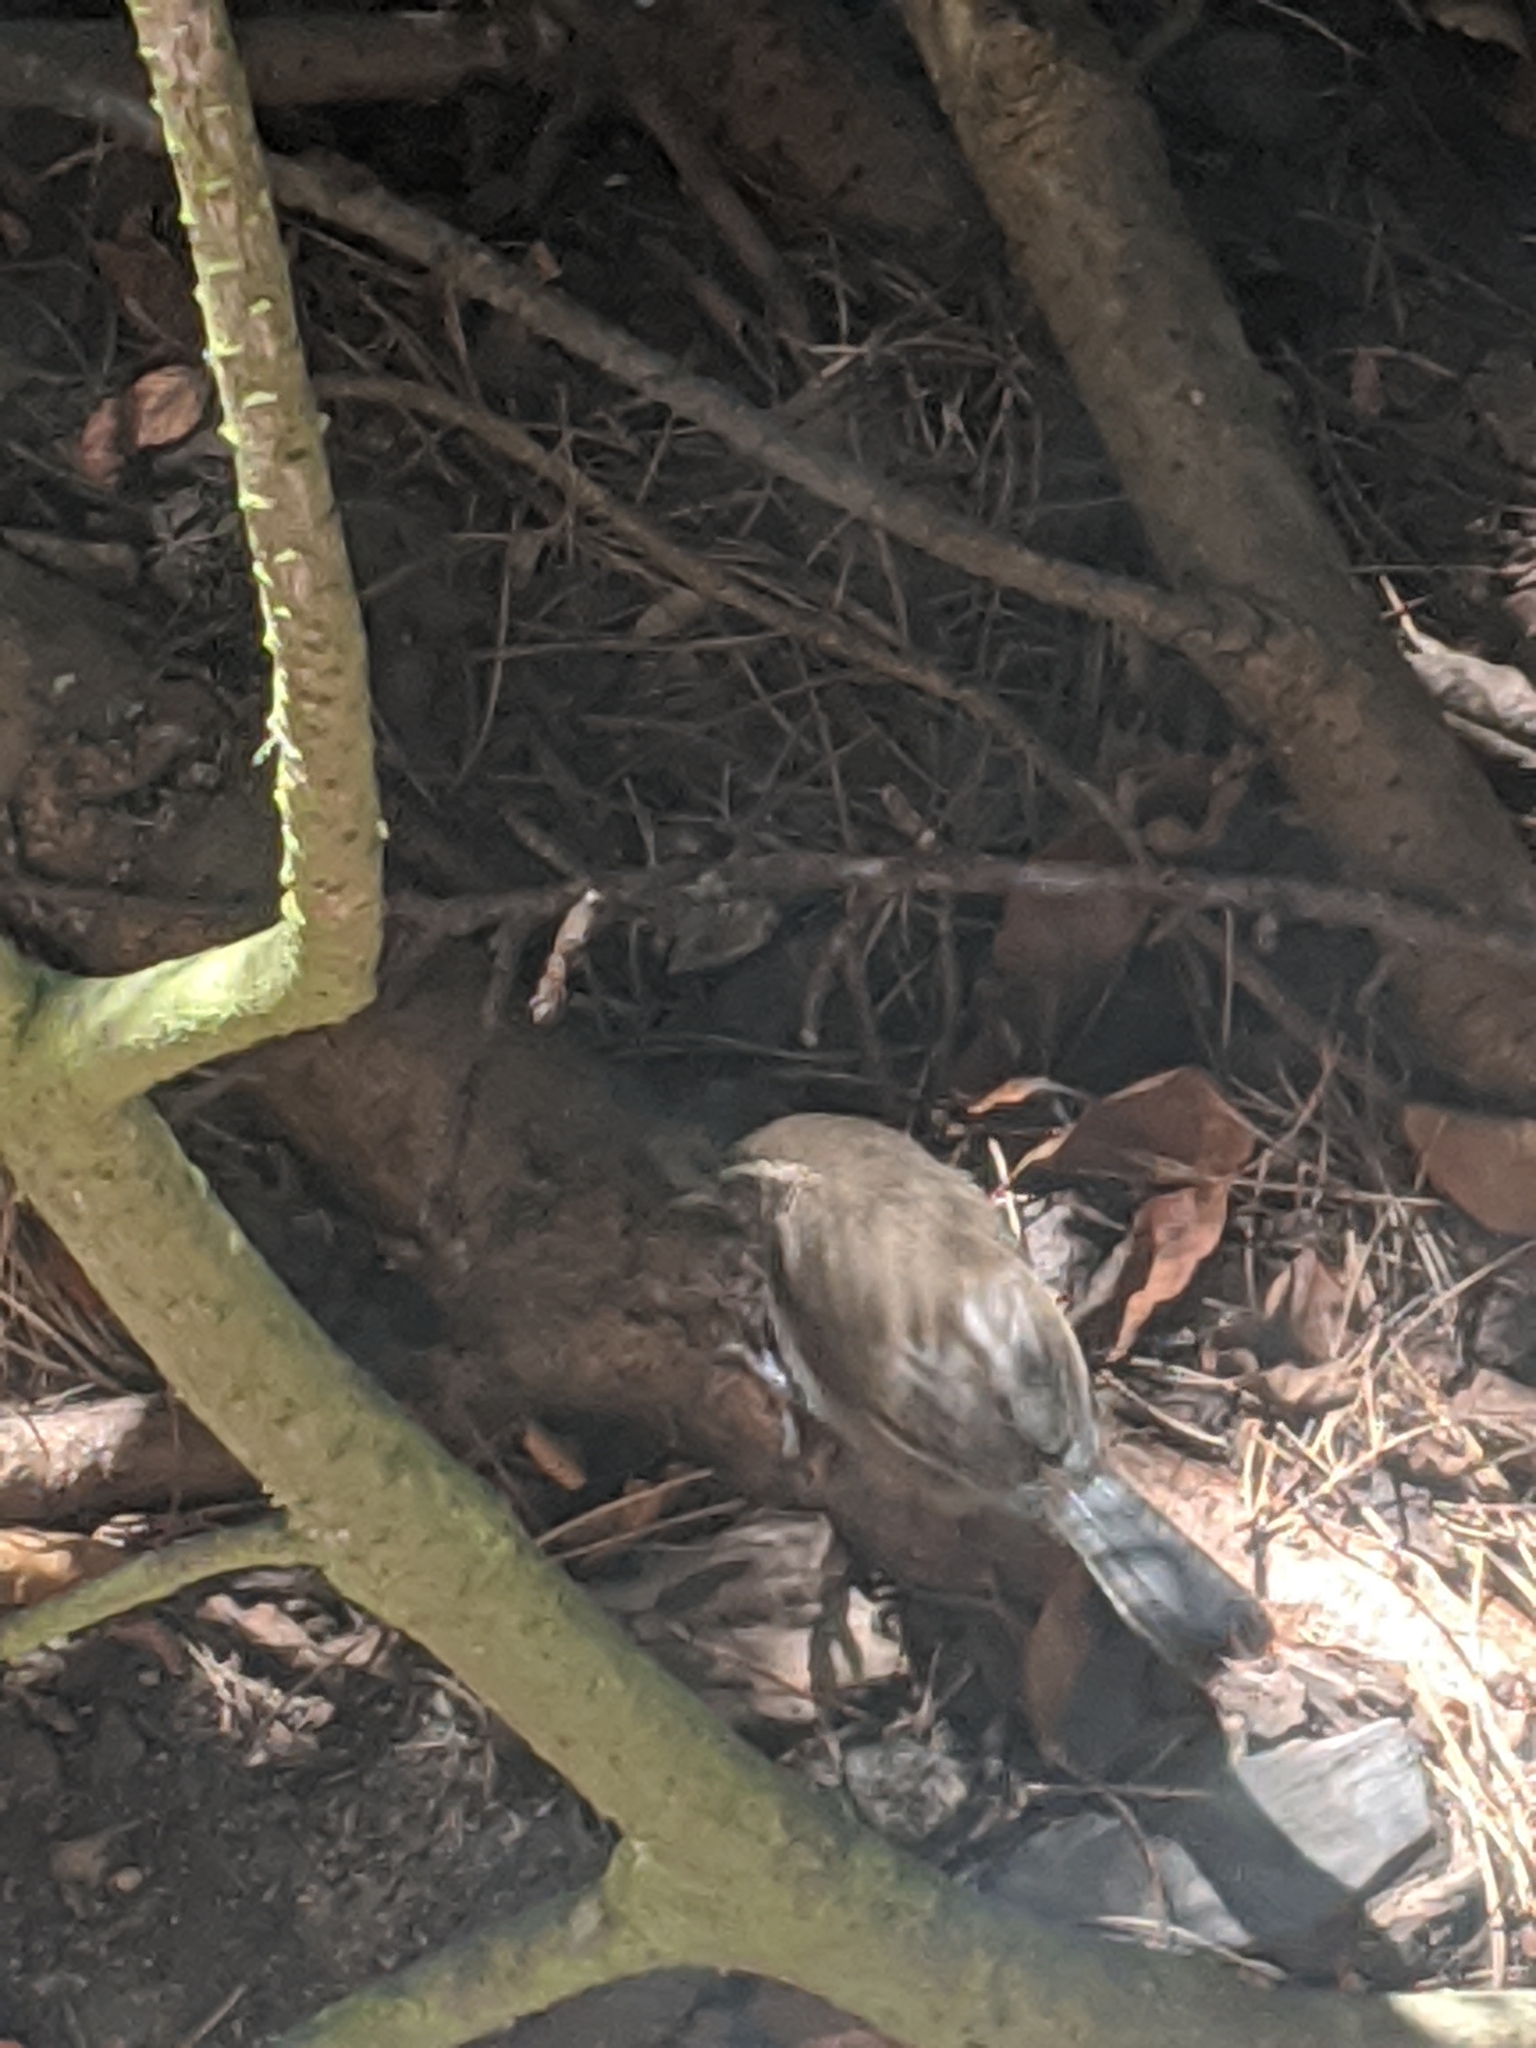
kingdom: Animalia
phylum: Chordata
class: Aves
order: Passeriformes
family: Troglodytidae
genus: Thryomanes
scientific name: Thryomanes bewickii
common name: Bewick's wren
